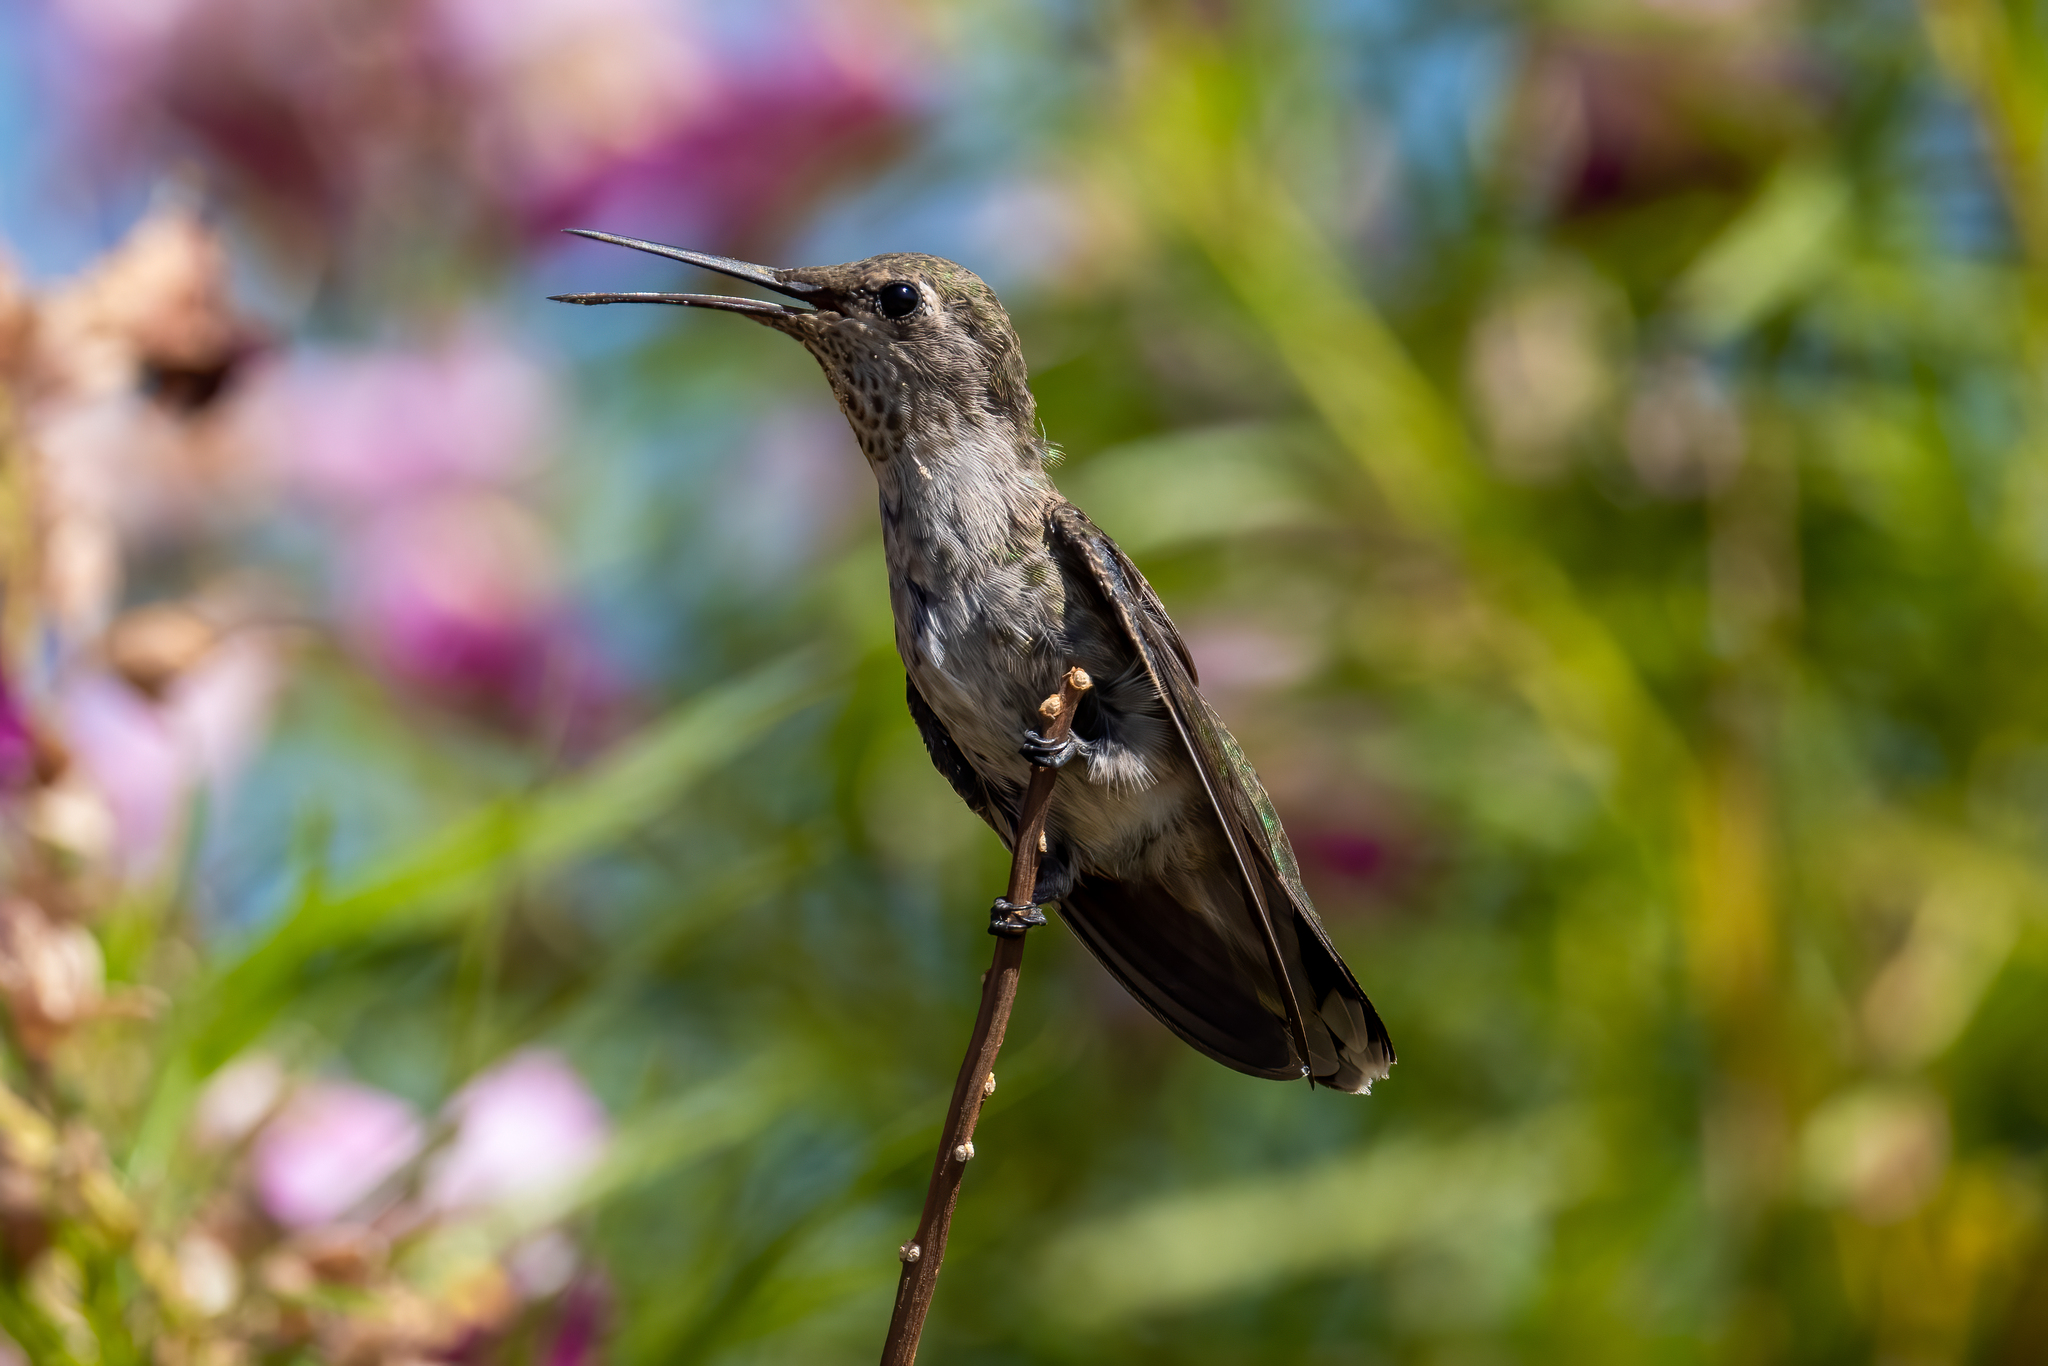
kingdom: Animalia
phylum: Chordata
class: Aves
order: Apodiformes
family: Trochilidae
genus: Calypte
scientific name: Calypte anna
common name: Anna's hummingbird
